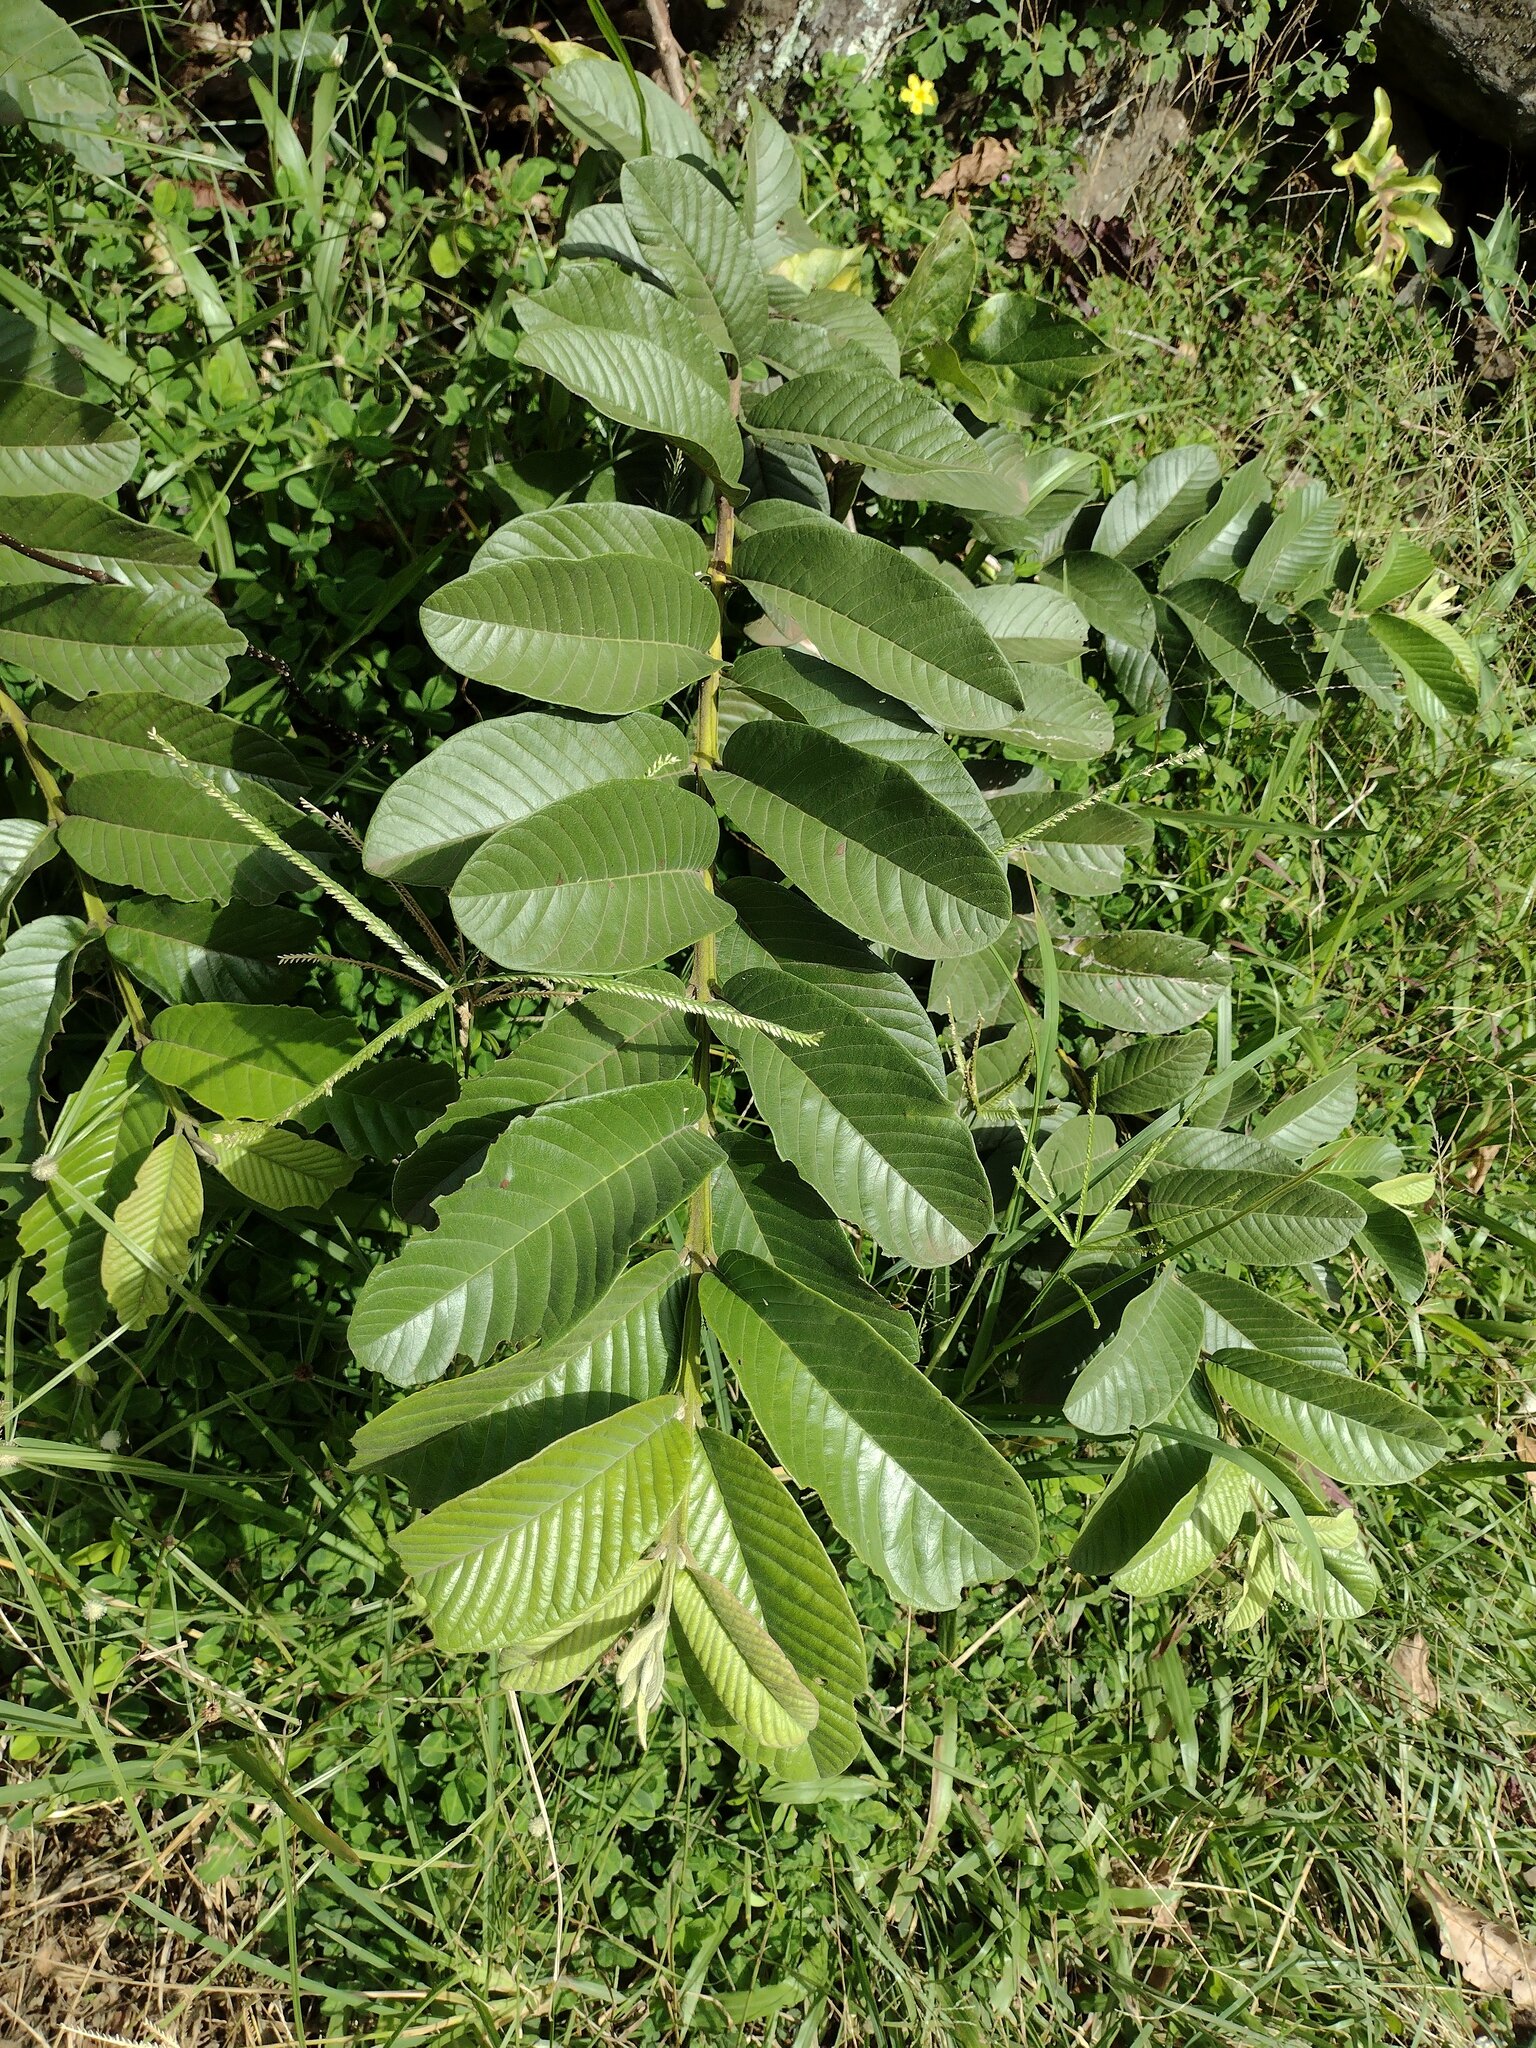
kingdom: Plantae
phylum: Tracheophyta
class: Magnoliopsida
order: Myrtales
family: Myrtaceae
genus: Psidium
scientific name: Psidium guajava
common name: Guava
